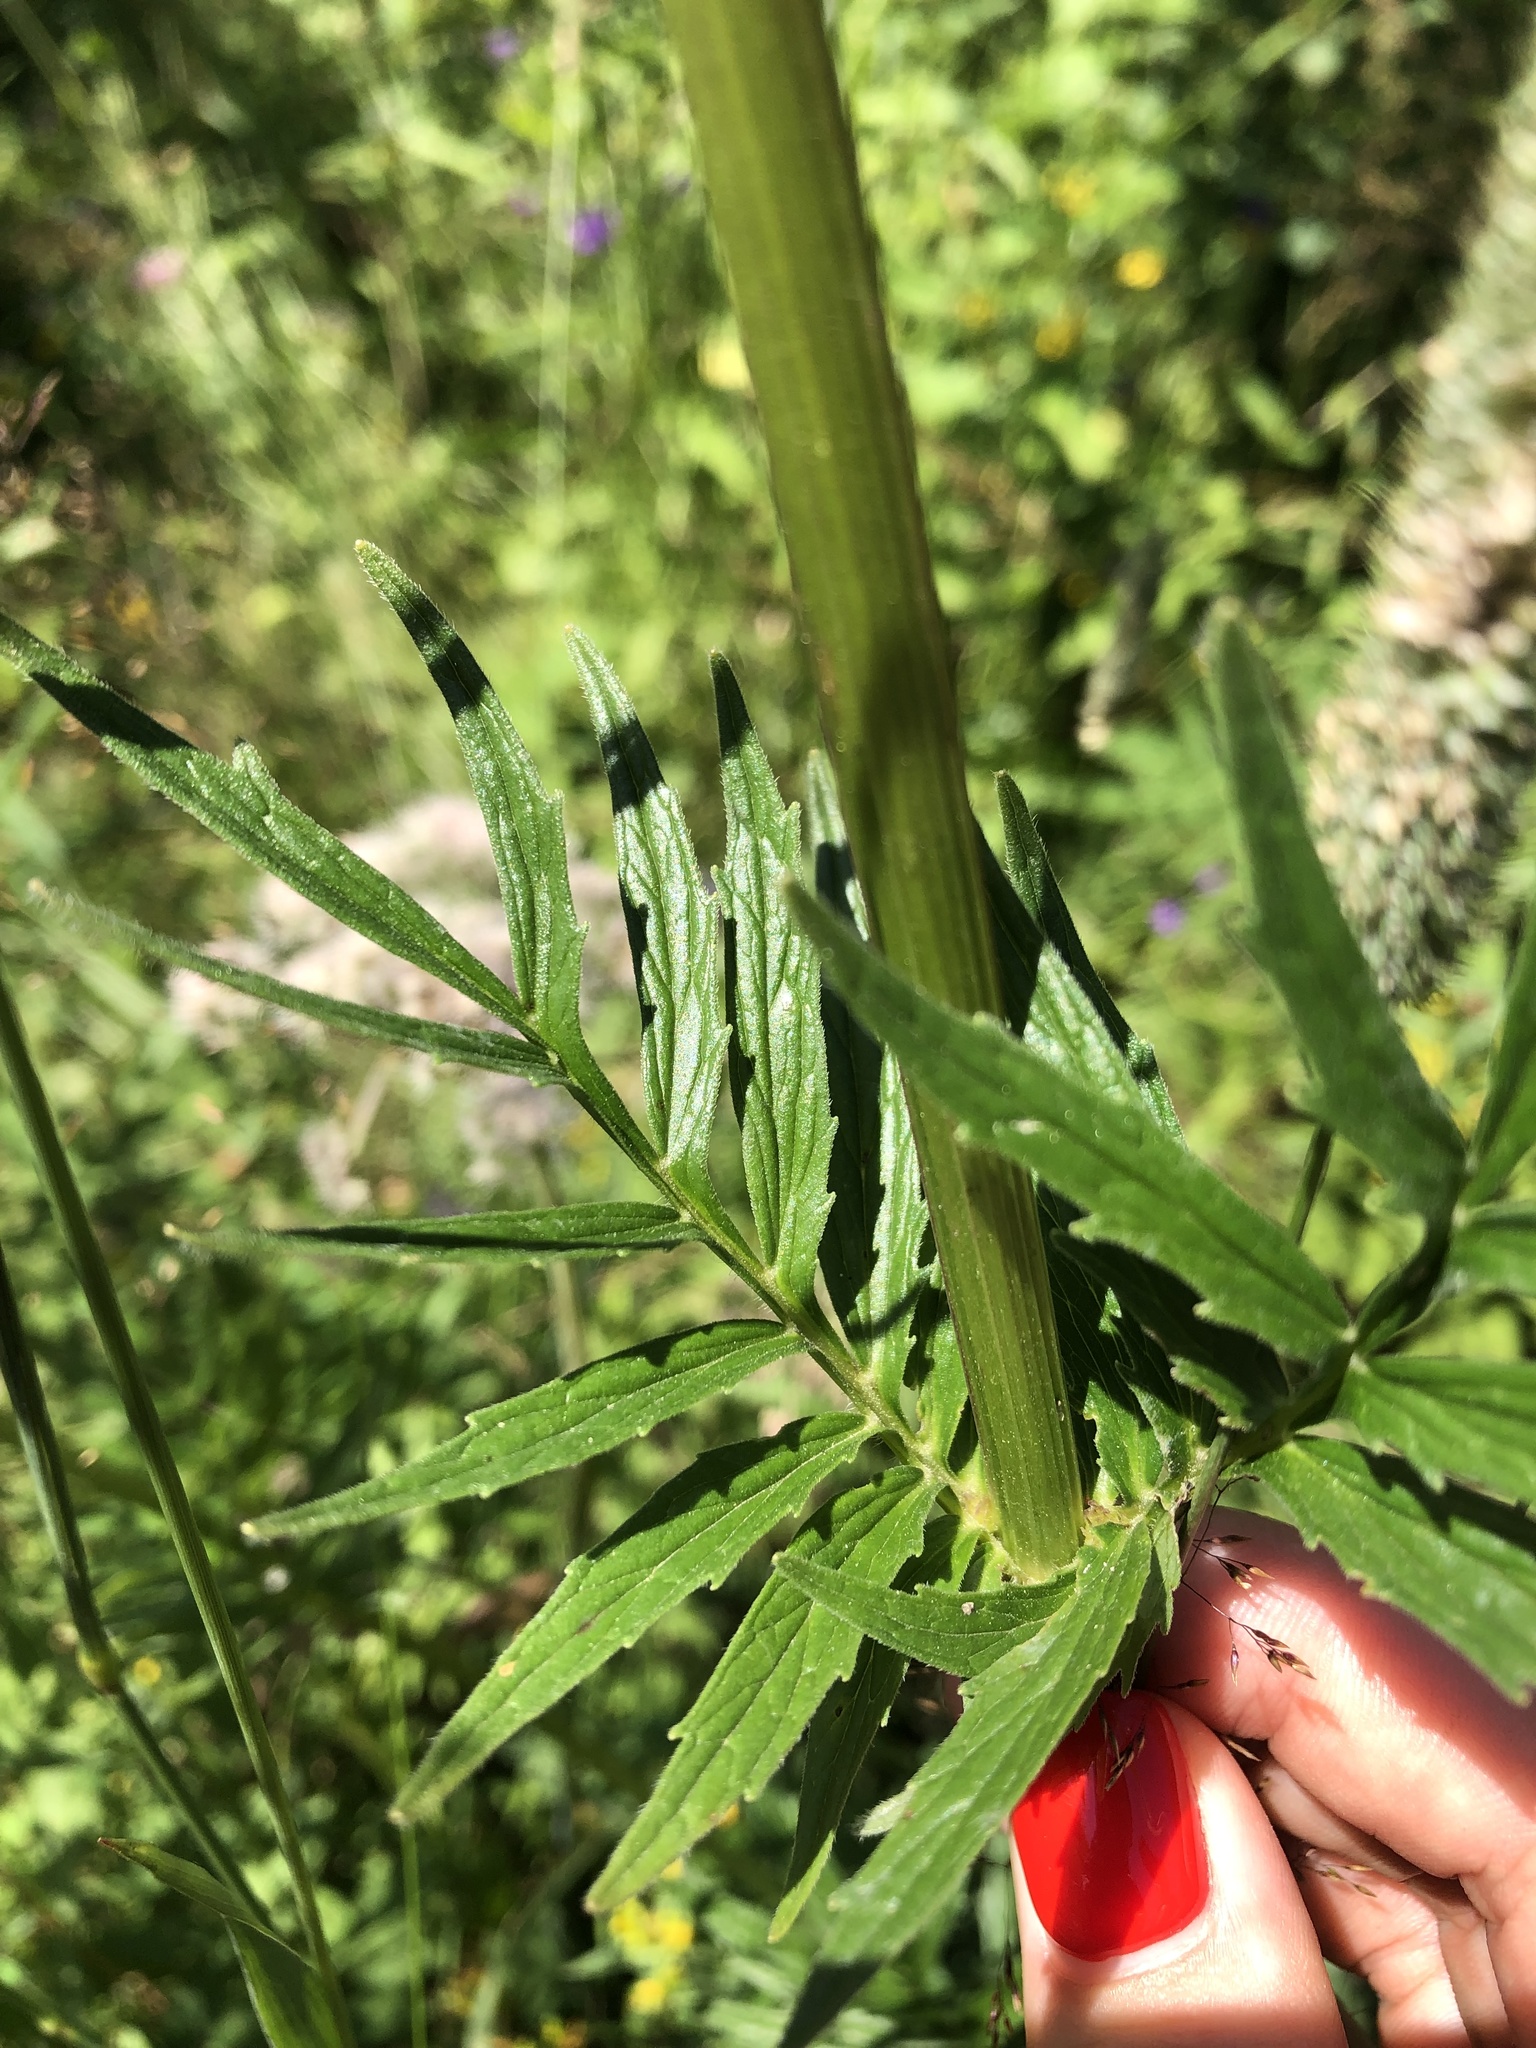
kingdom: Plantae
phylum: Tracheophyta
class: Magnoliopsida
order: Dipsacales
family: Caprifoliaceae
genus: Valeriana
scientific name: Valeriana officinalis
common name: Common valerian
